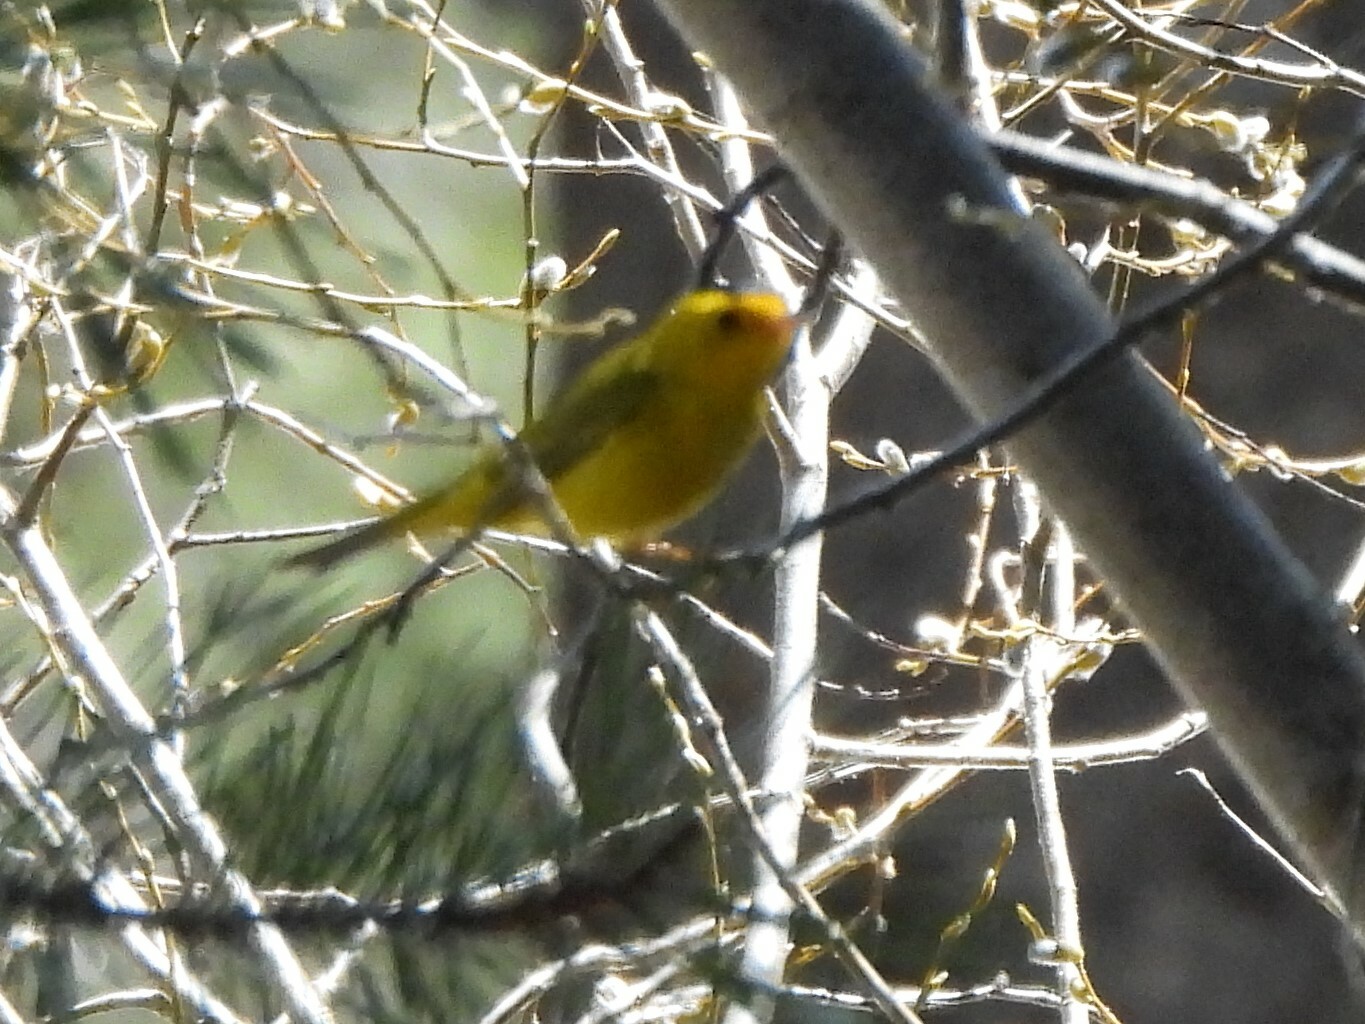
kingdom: Animalia
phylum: Chordata
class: Aves
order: Passeriformes
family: Parulidae
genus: Cardellina
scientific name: Cardellina pusilla
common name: Wilson's warbler
